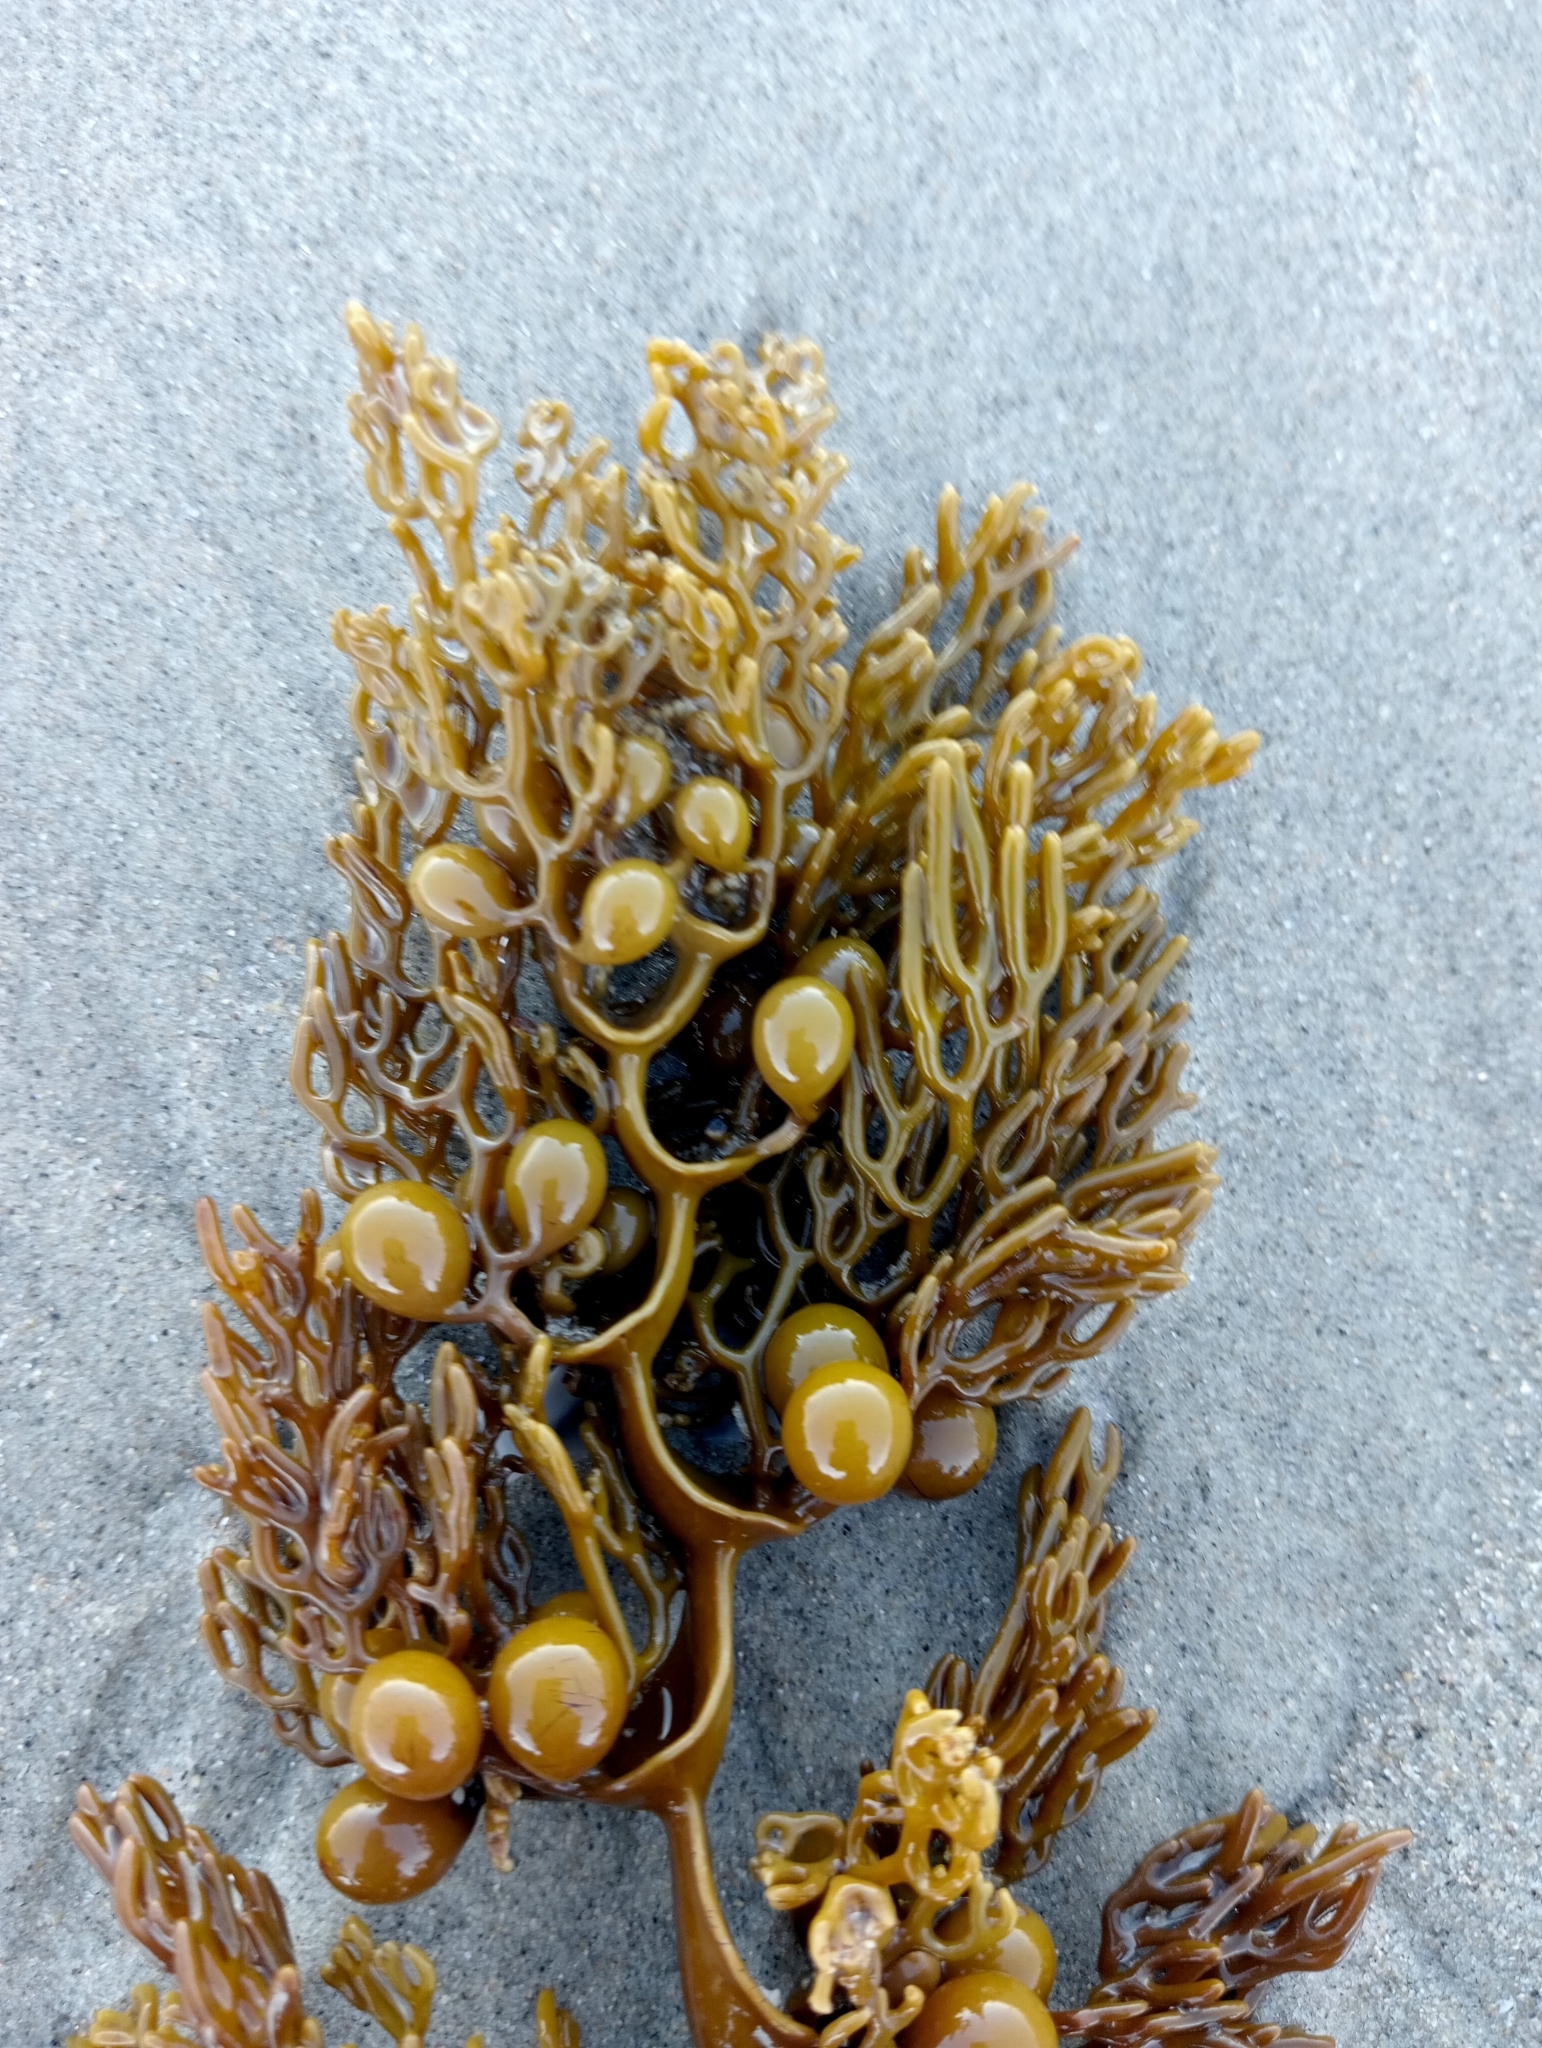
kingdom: Chromista
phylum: Ochrophyta
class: Phaeophyceae
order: Fucales
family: Sargassaceae
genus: Cystophora
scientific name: Cystophora scalaris
